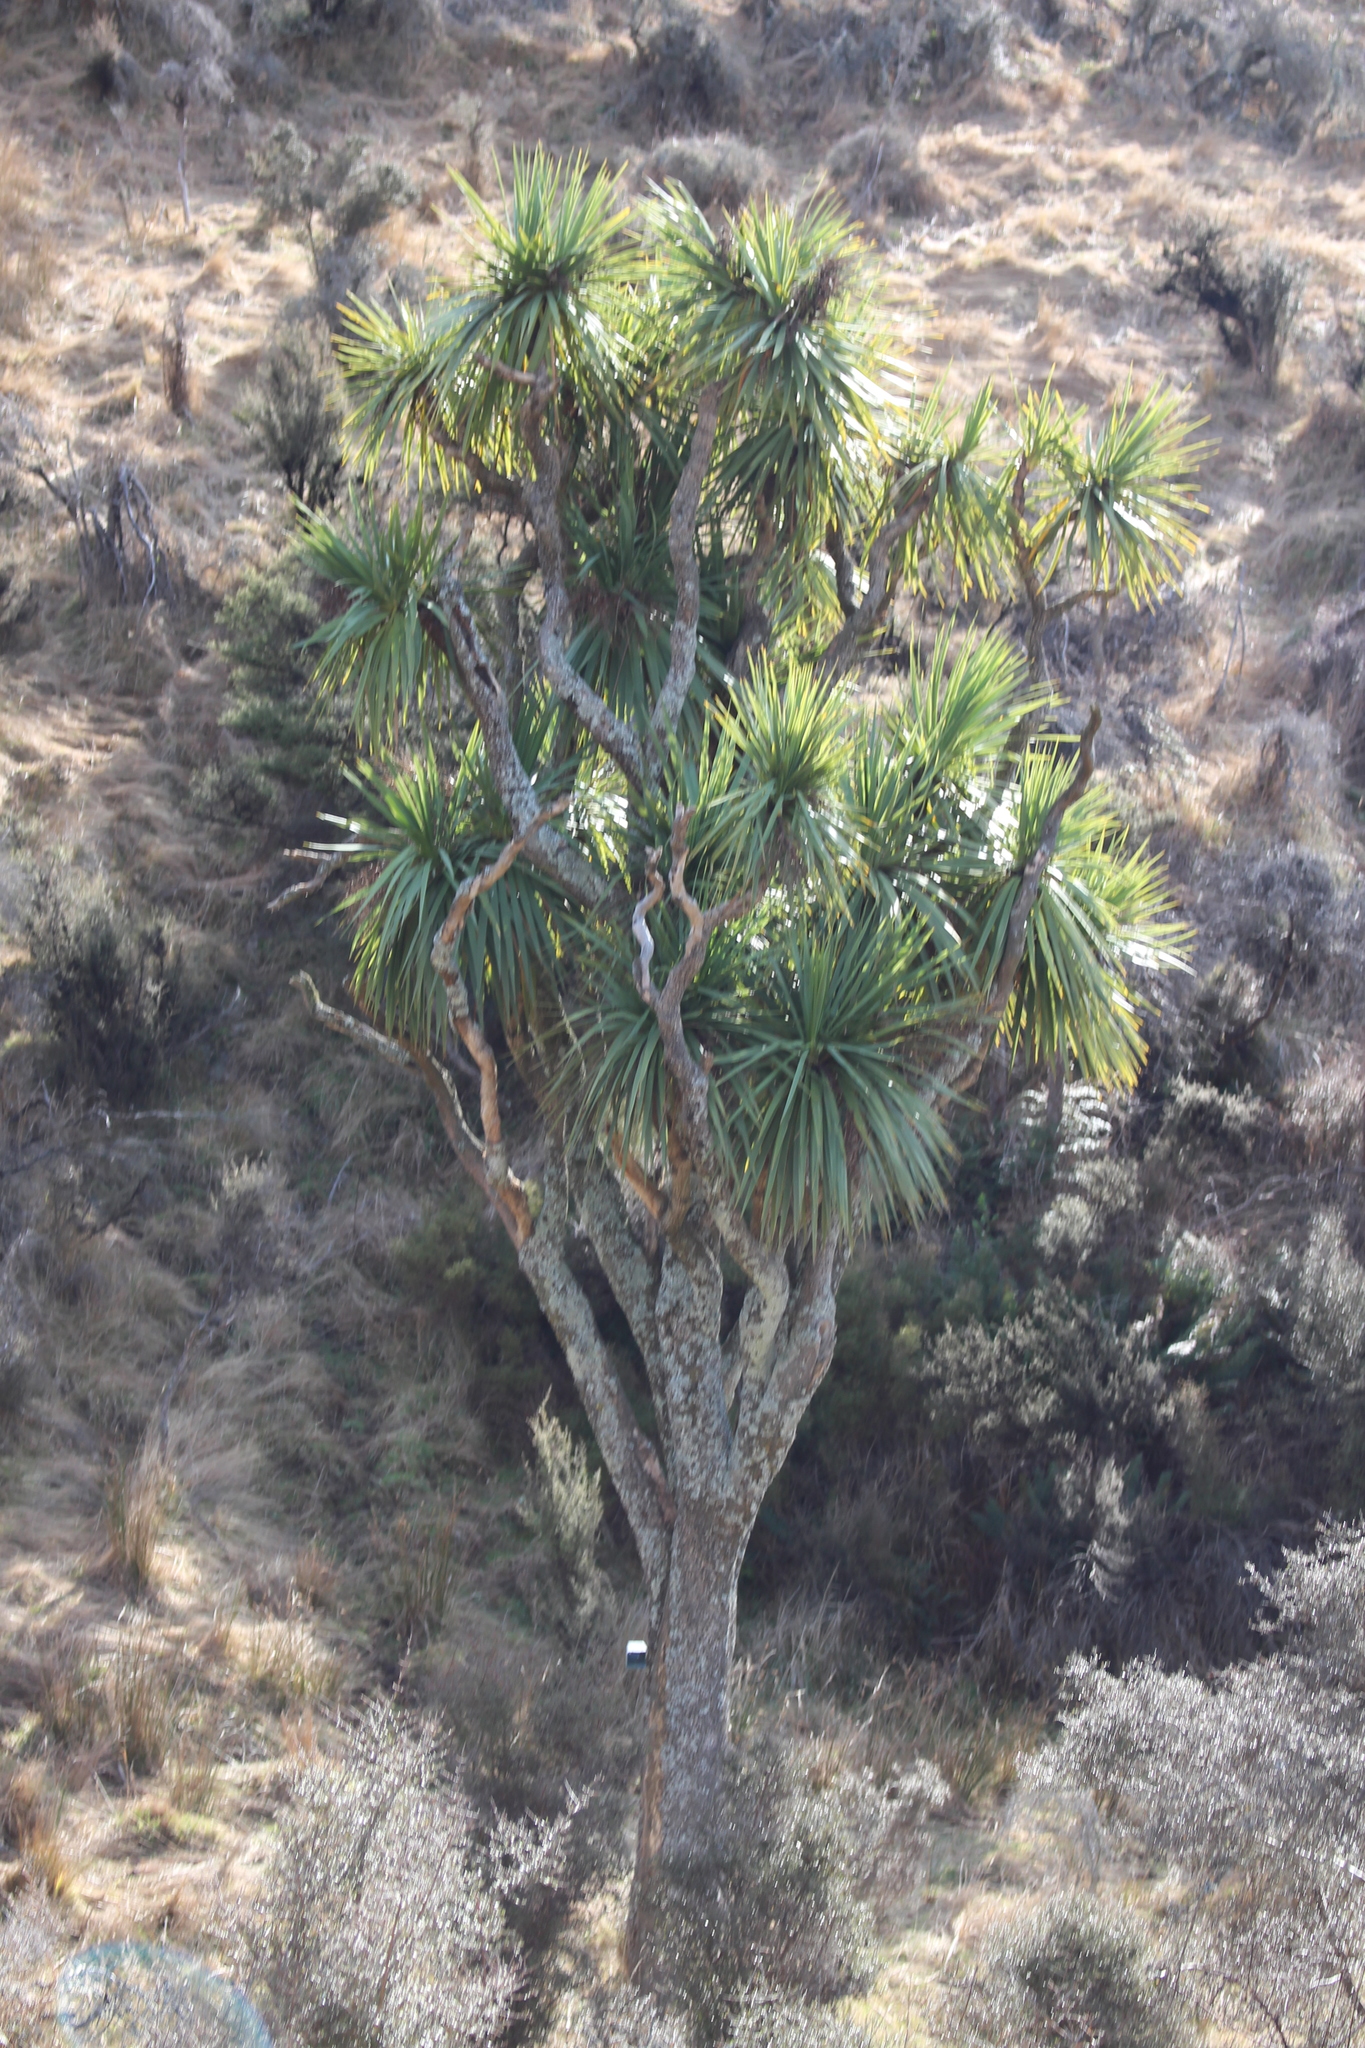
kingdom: Plantae
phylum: Tracheophyta
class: Liliopsida
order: Asparagales
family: Asparagaceae
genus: Cordyline
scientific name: Cordyline australis
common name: Cabbage-palm
